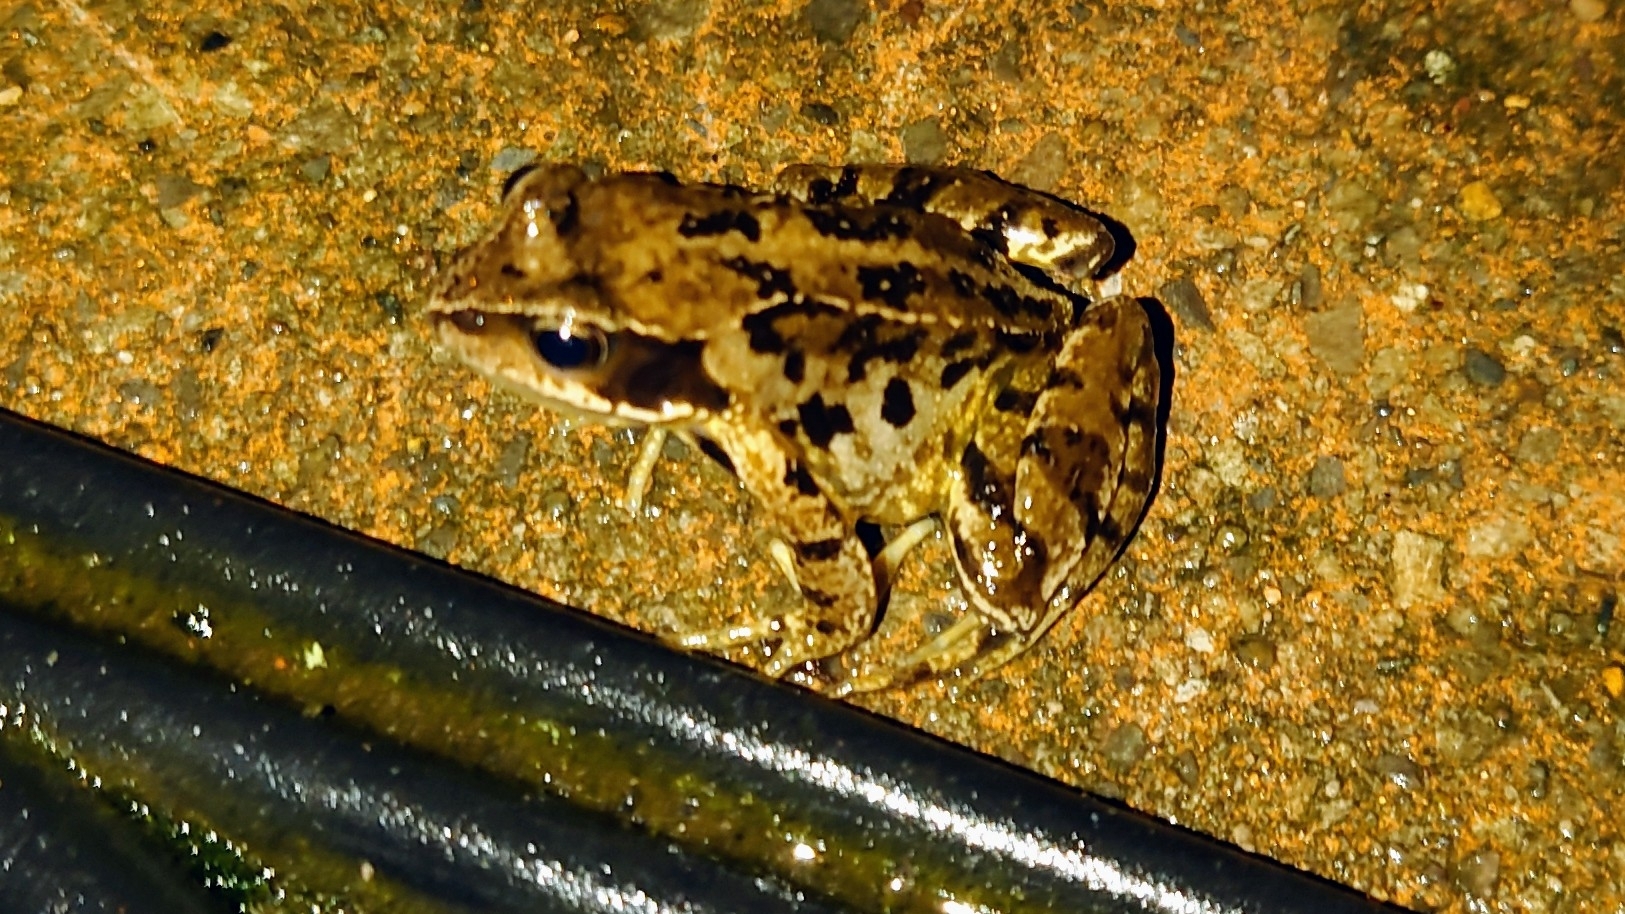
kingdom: Animalia
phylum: Chordata
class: Amphibia
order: Anura
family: Ranidae
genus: Rana
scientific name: Rana temporaria
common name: Common frog
